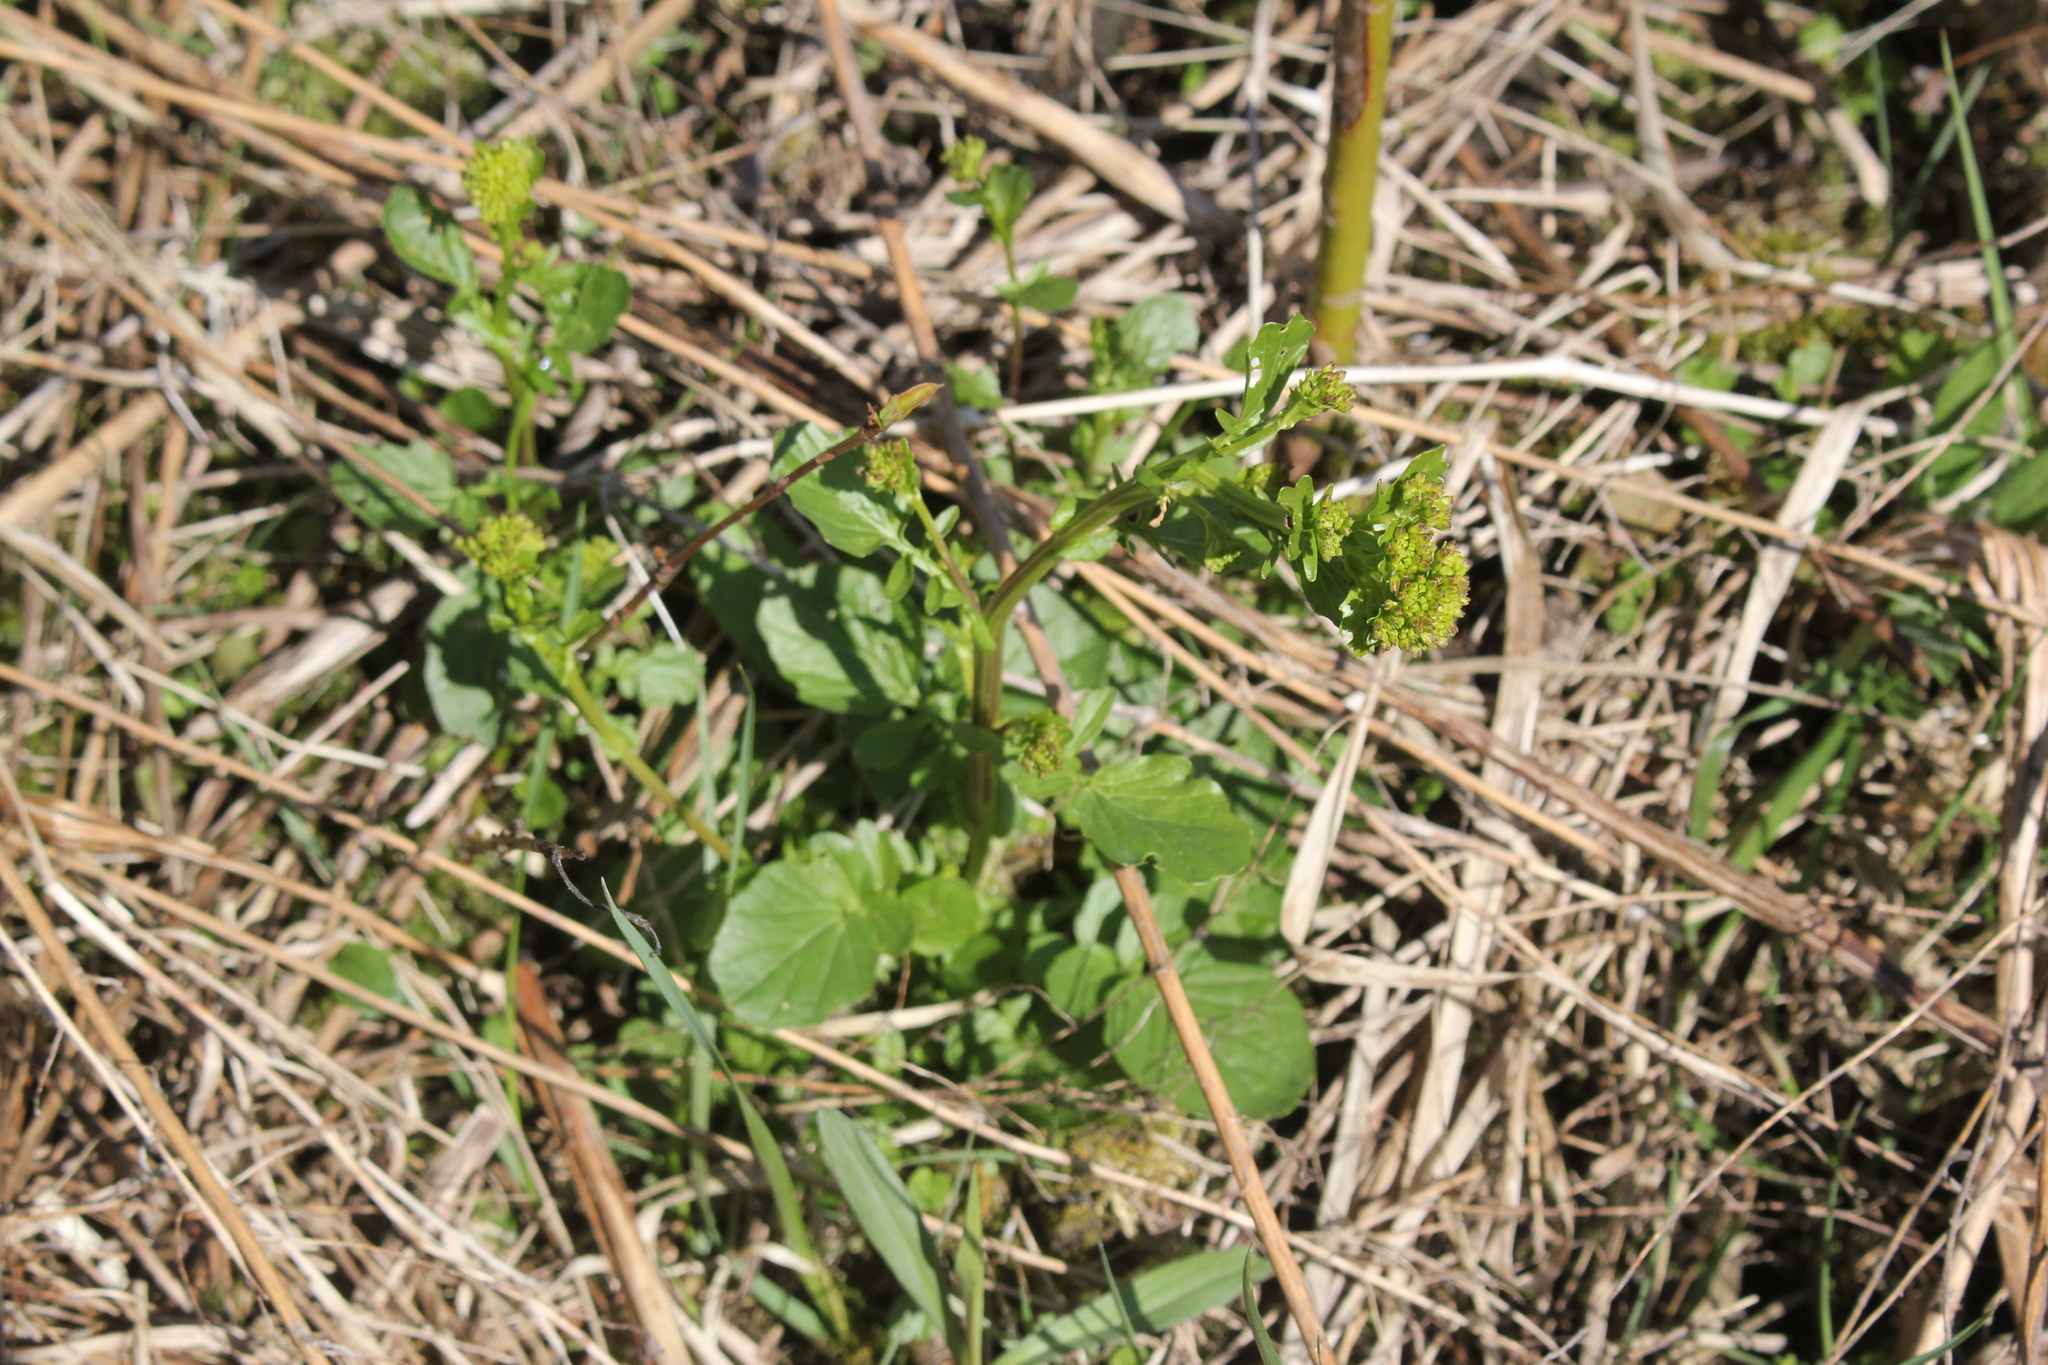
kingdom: Plantae
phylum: Tracheophyta
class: Magnoliopsida
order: Brassicales
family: Brassicaceae
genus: Barbarea
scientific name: Barbarea vulgaris
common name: Cressy-greens
